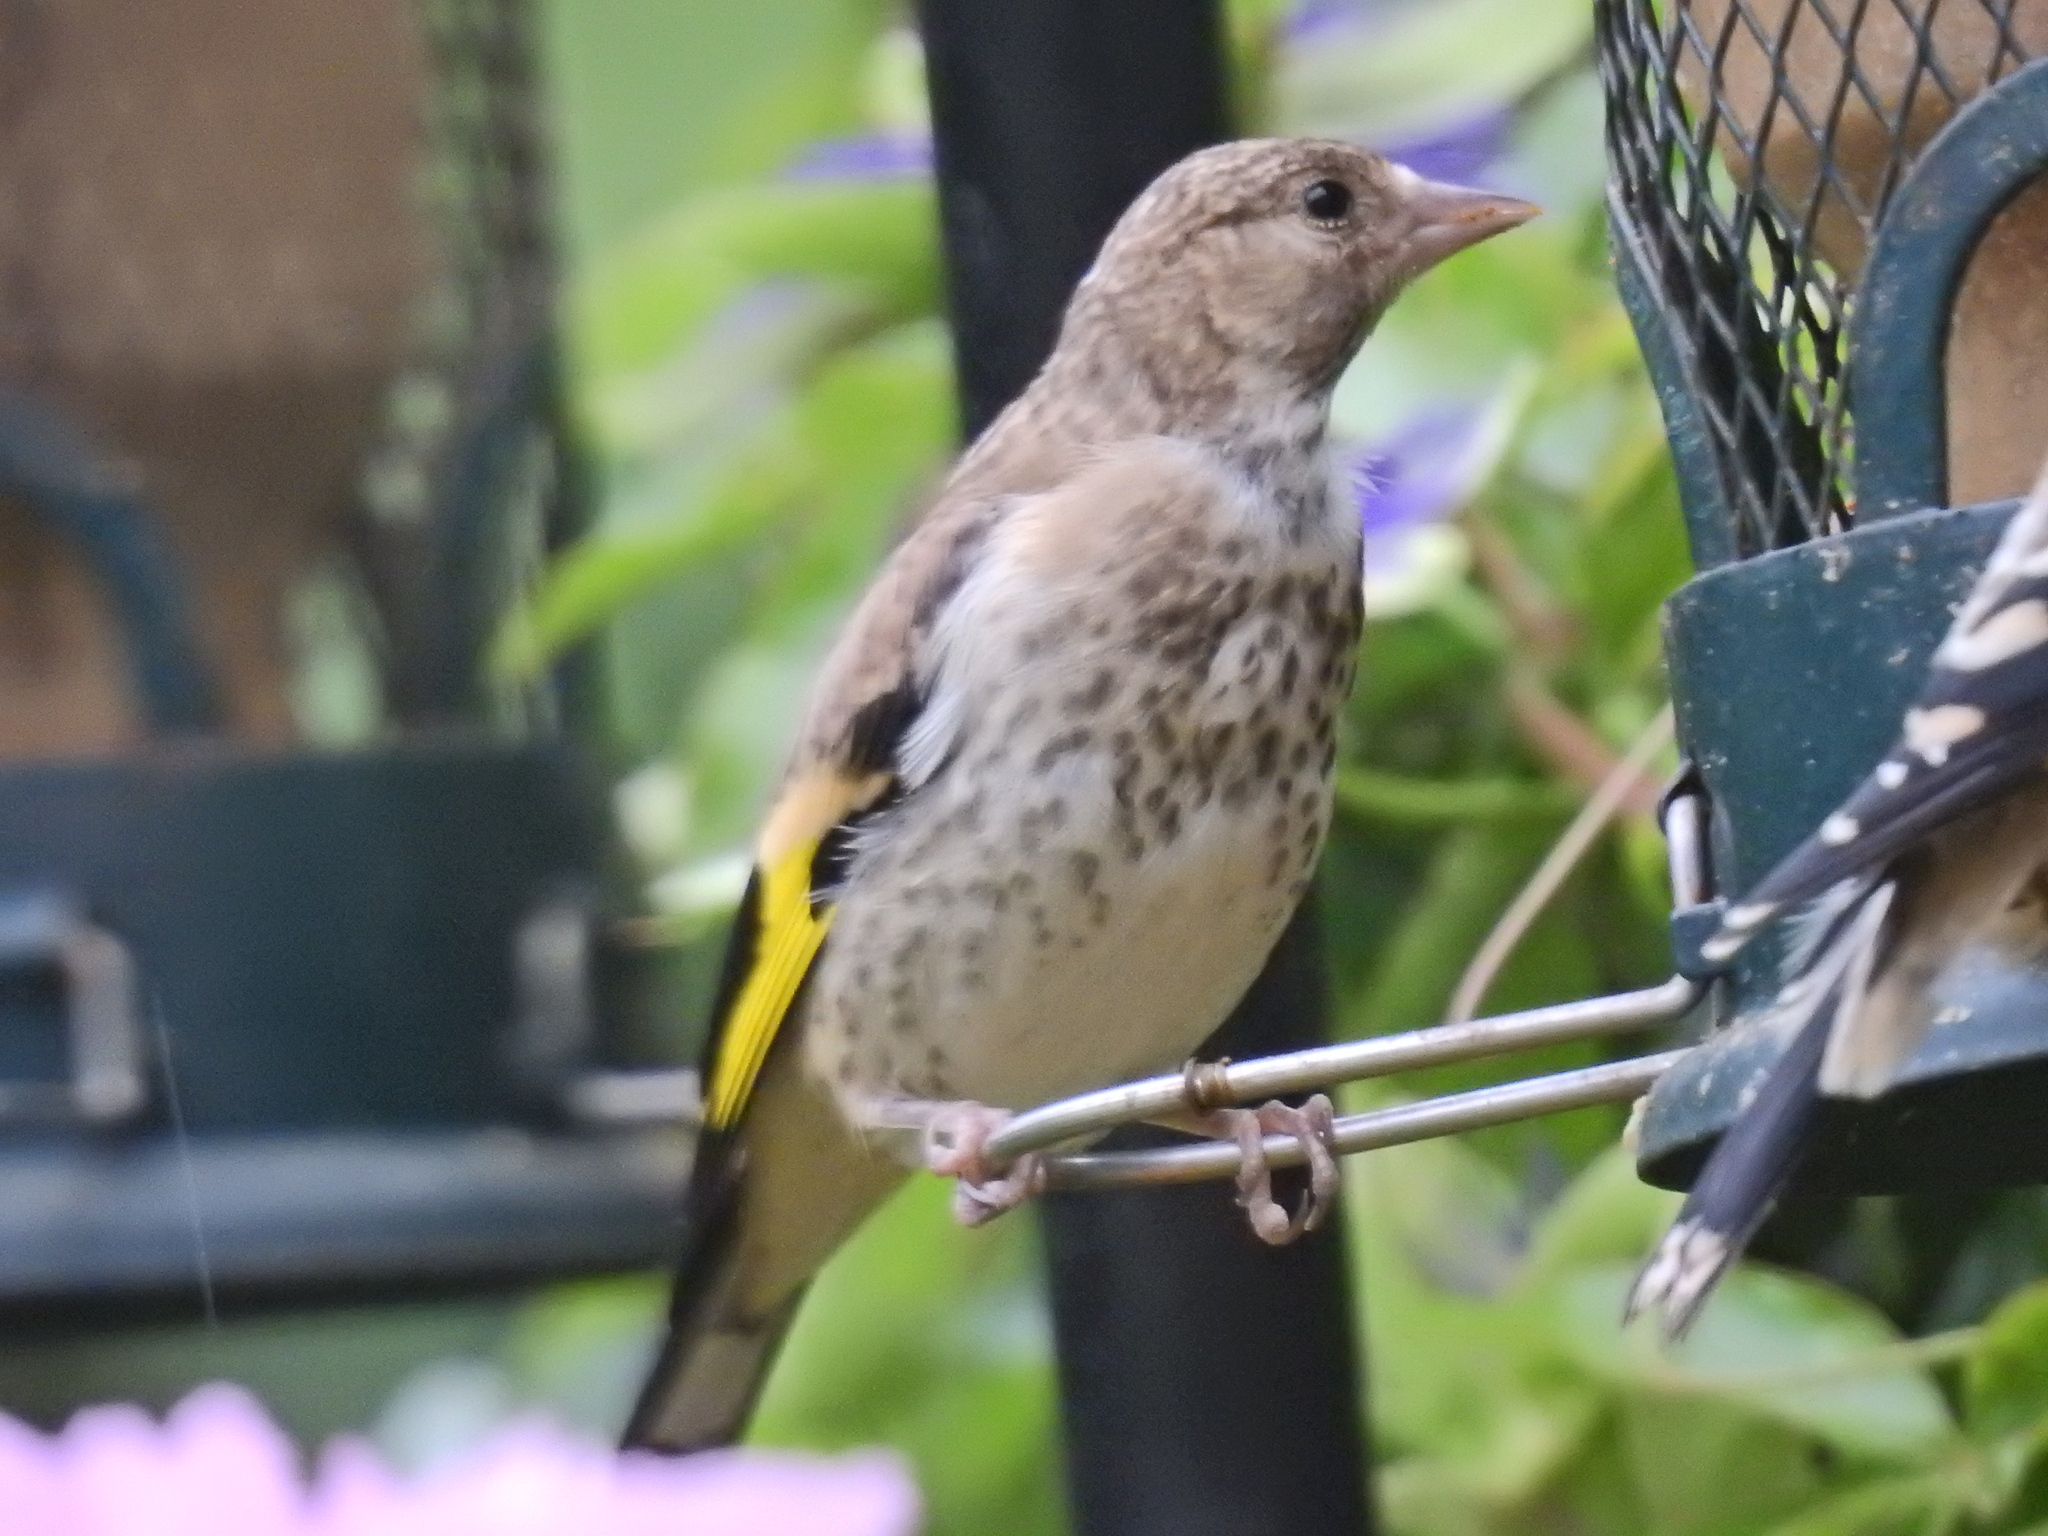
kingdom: Animalia
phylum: Chordata
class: Aves
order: Passeriformes
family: Fringillidae
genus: Carduelis
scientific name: Carduelis carduelis
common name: European goldfinch
